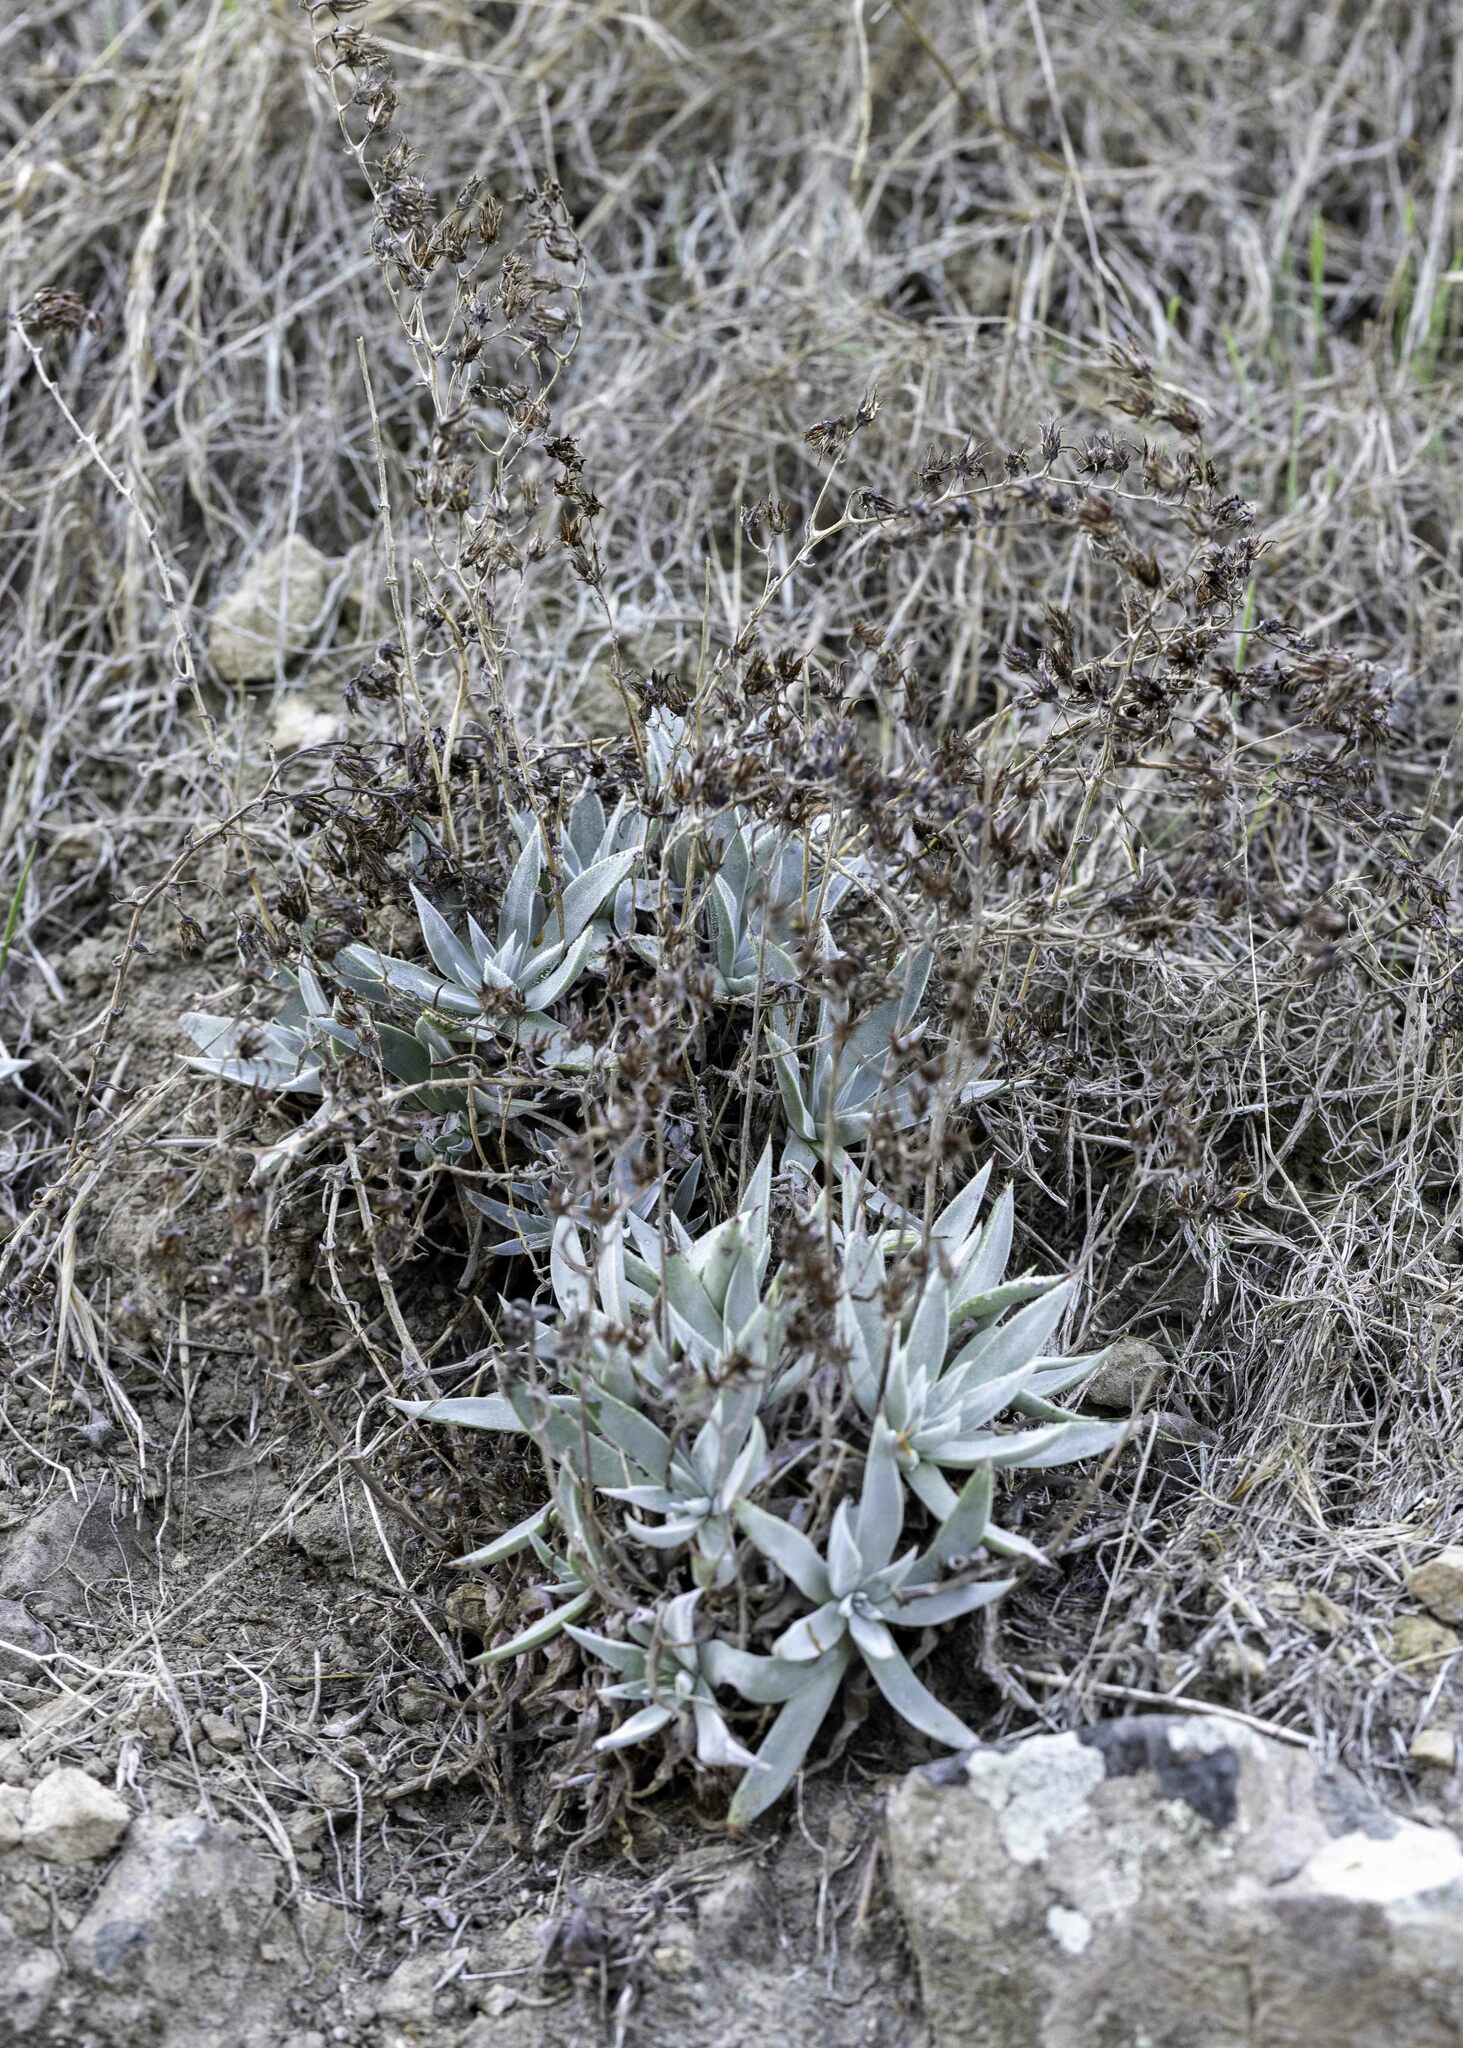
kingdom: Plantae
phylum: Tracheophyta
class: Magnoliopsida
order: Saxifragales
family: Crassulaceae
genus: Dudleya
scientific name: Dudleya verityi
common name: Verity dudleya
